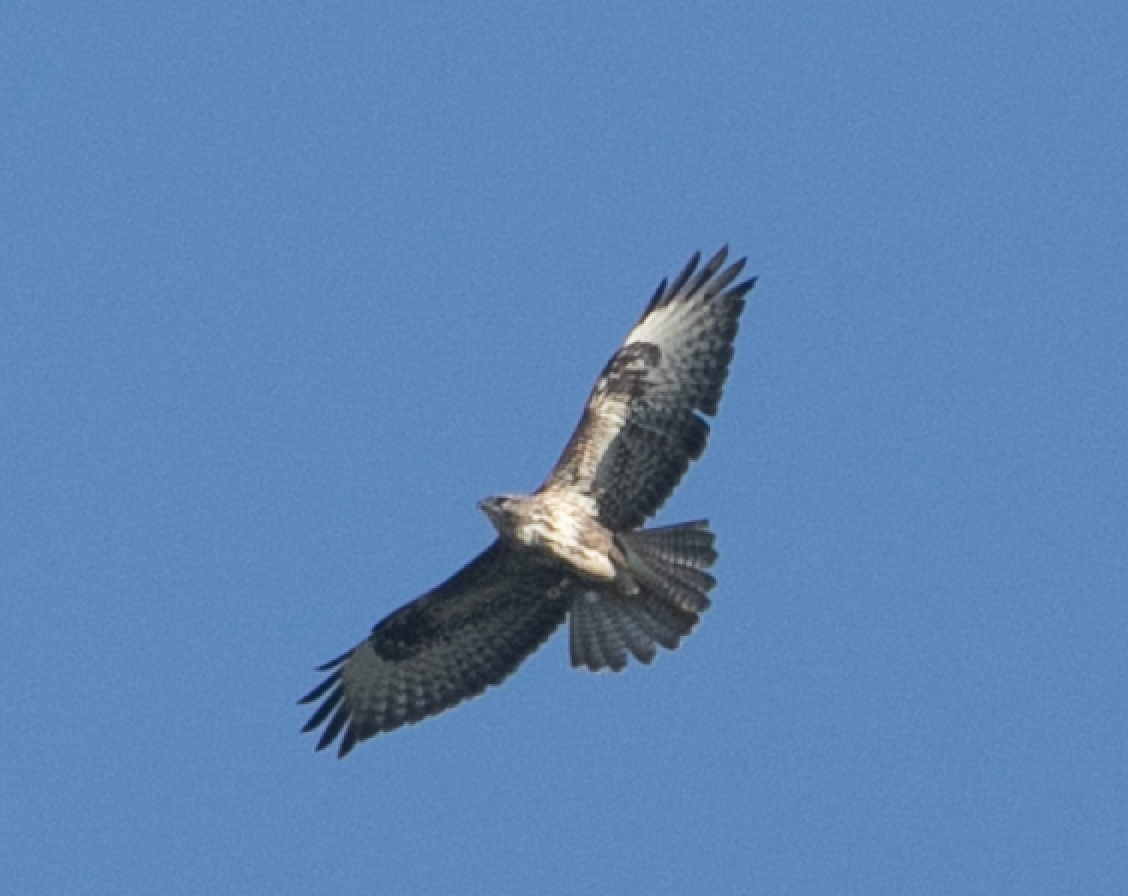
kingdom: Animalia
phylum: Chordata
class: Aves
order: Accipitriformes
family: Accipitridae
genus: Buteo
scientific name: Buteo buteo
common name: Common buzzard
